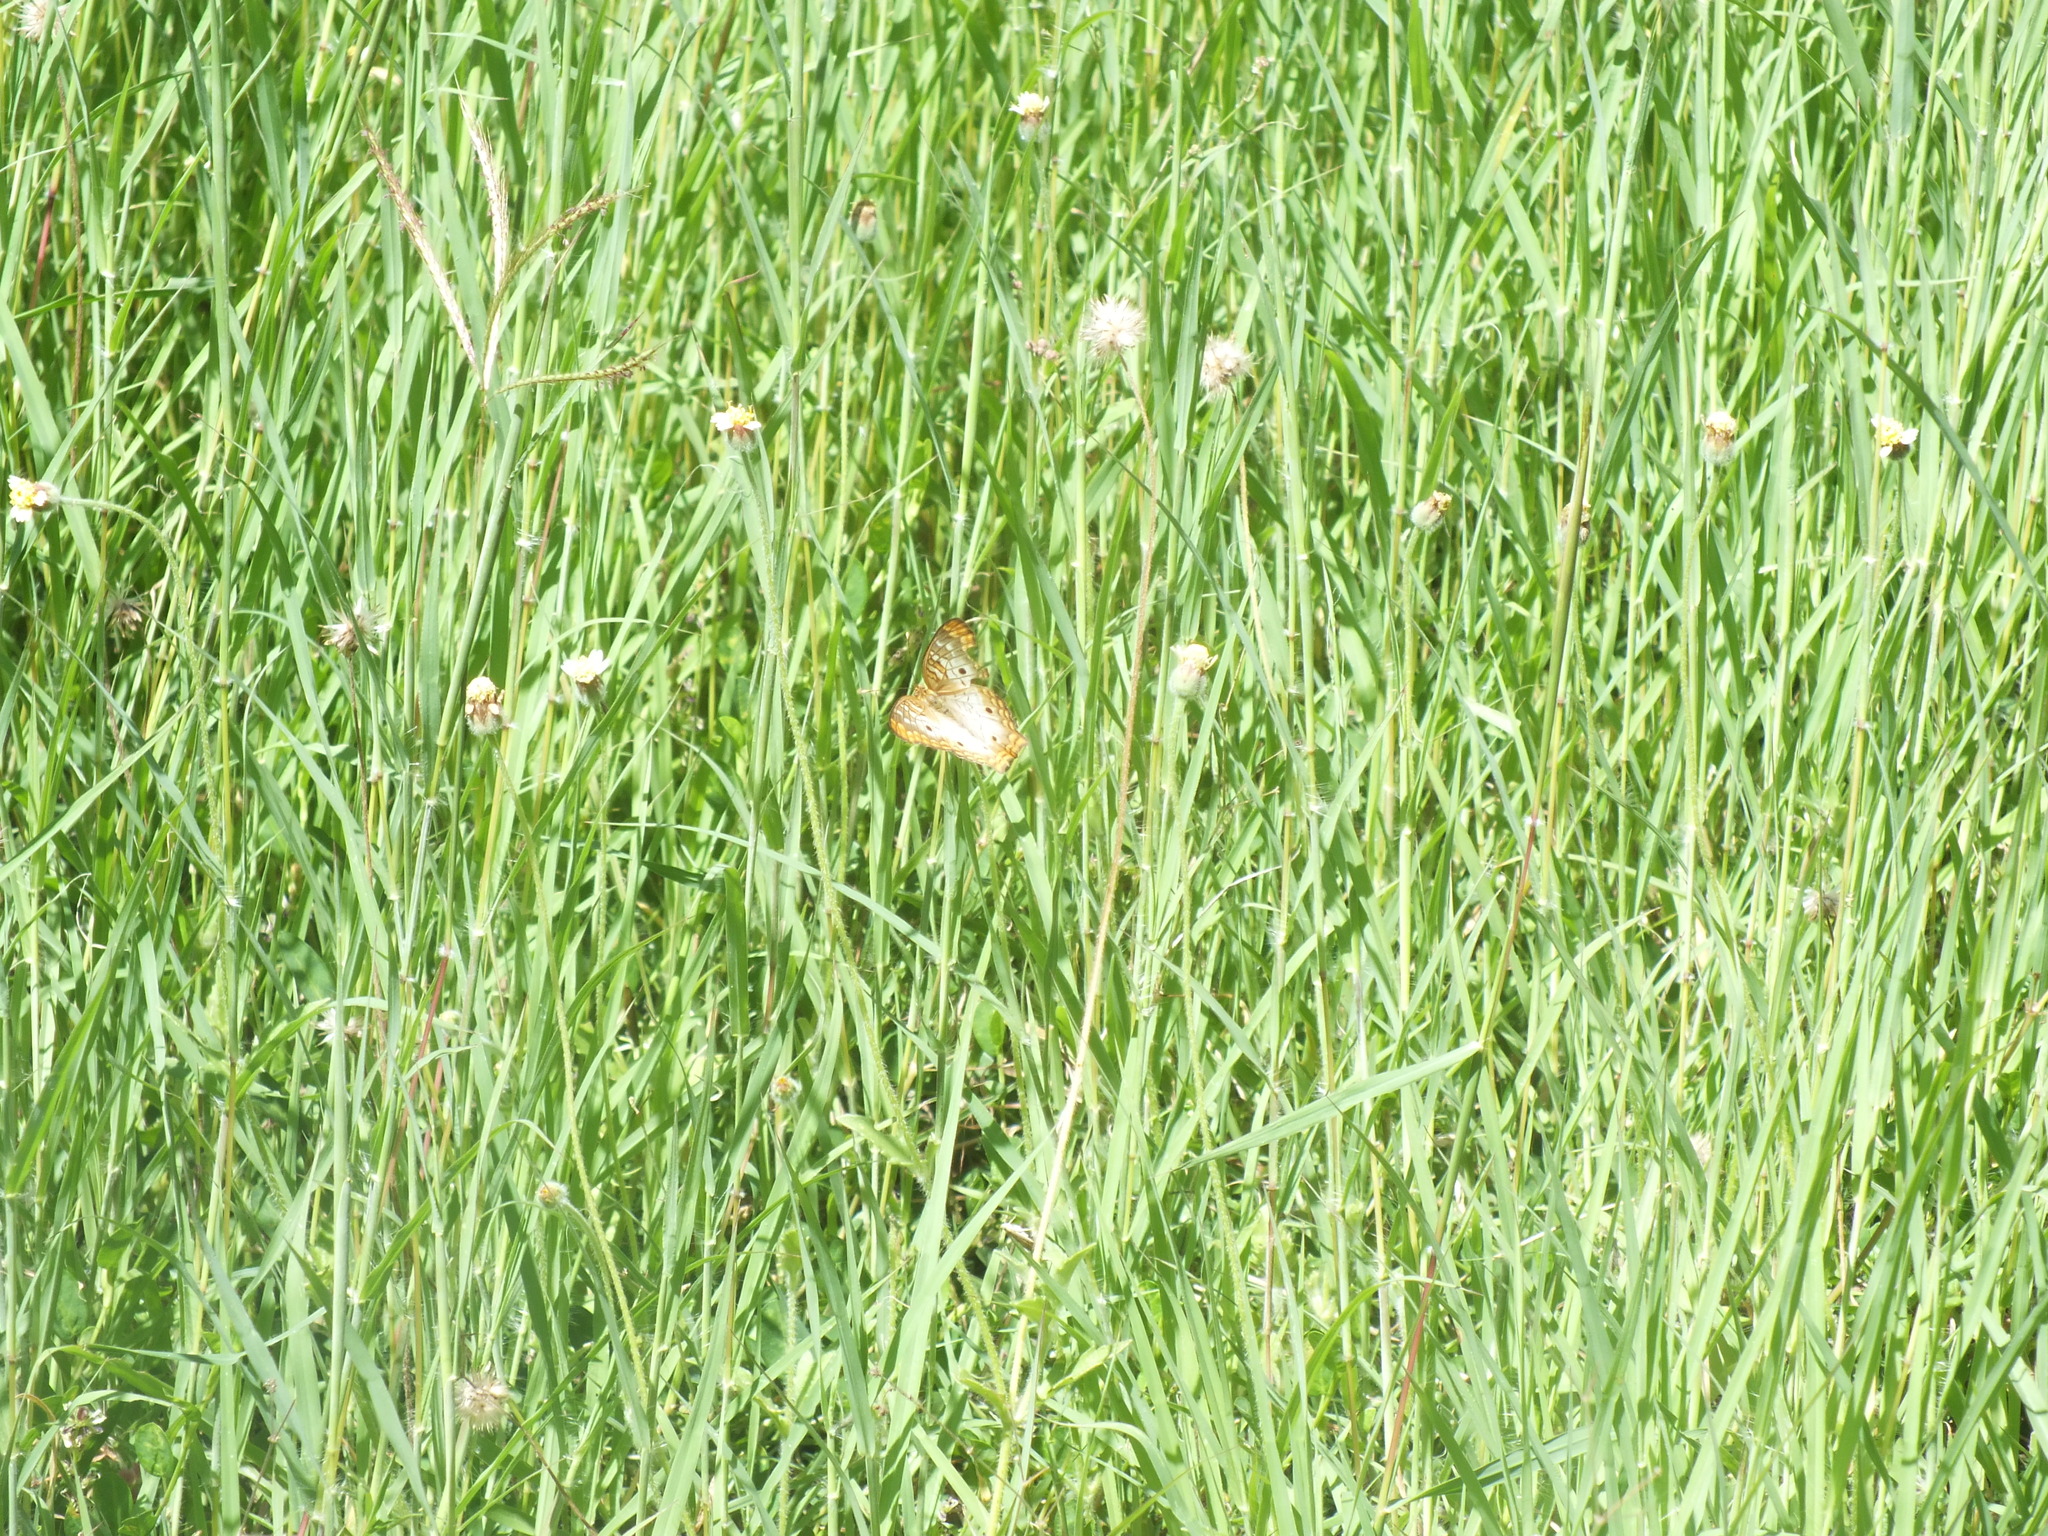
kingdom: Animalia
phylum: Arthropoda
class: Insecta
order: Lepidoptera
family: Nymphalidae
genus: Anartia
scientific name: Anartia jatrophae
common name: White peacock
